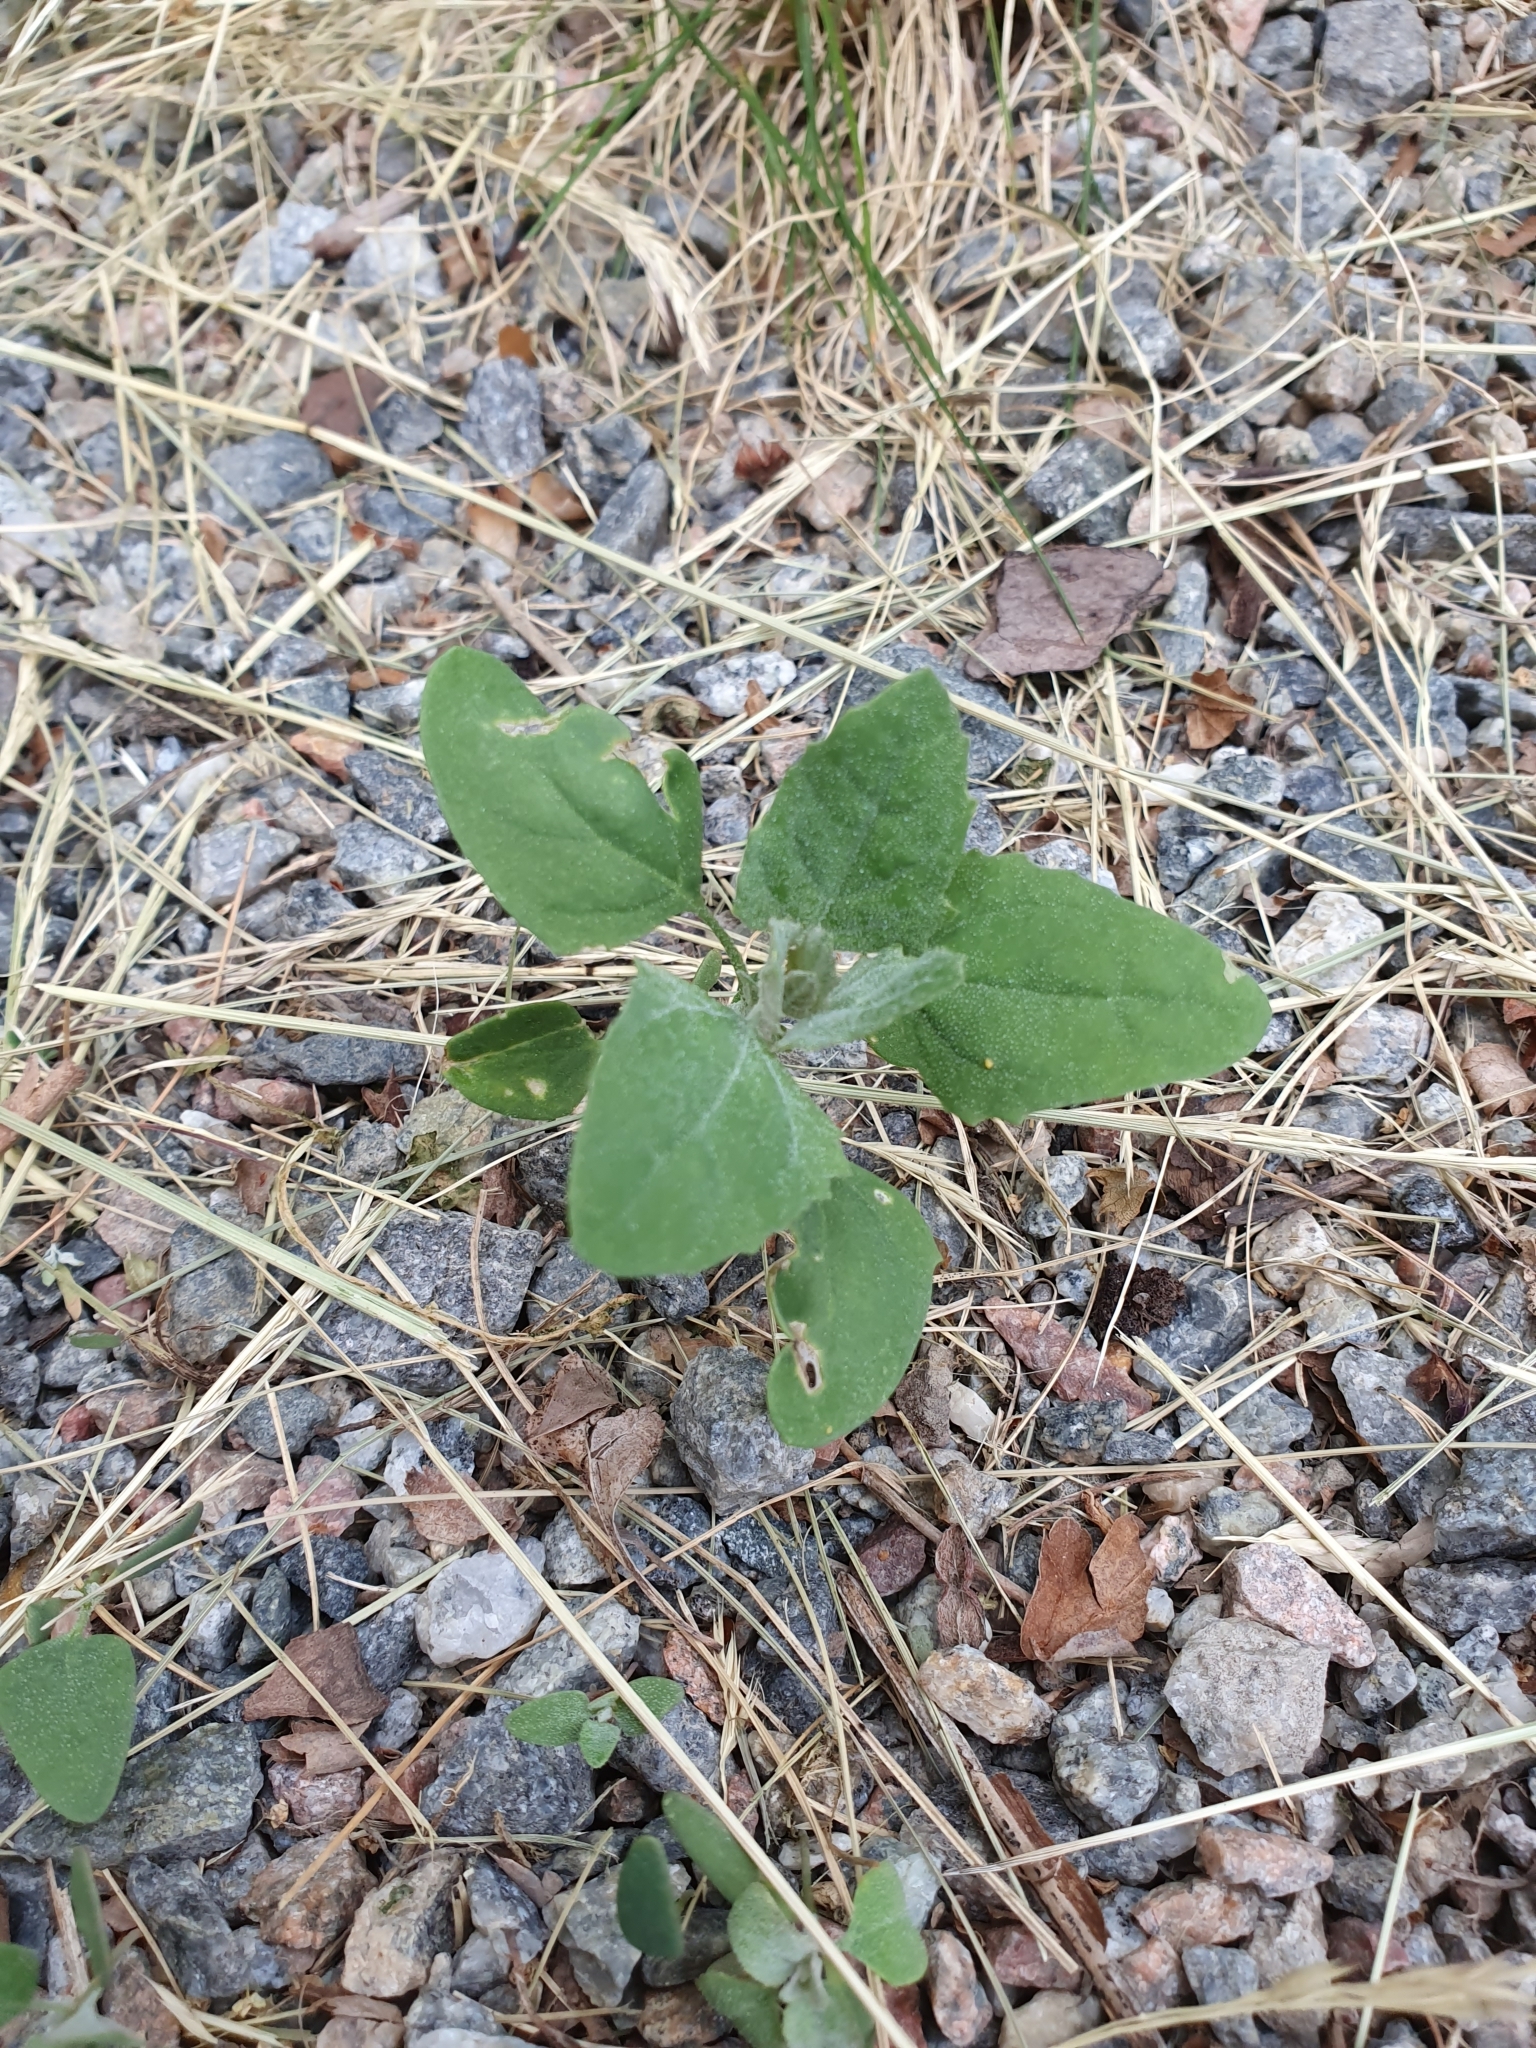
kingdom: Plantae
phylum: Tracheophyta
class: Magnoliopsida
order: Caryophyllales
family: Amaranthaceae
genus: Chenopodium
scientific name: Chenopodium album
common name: Fat-hen
